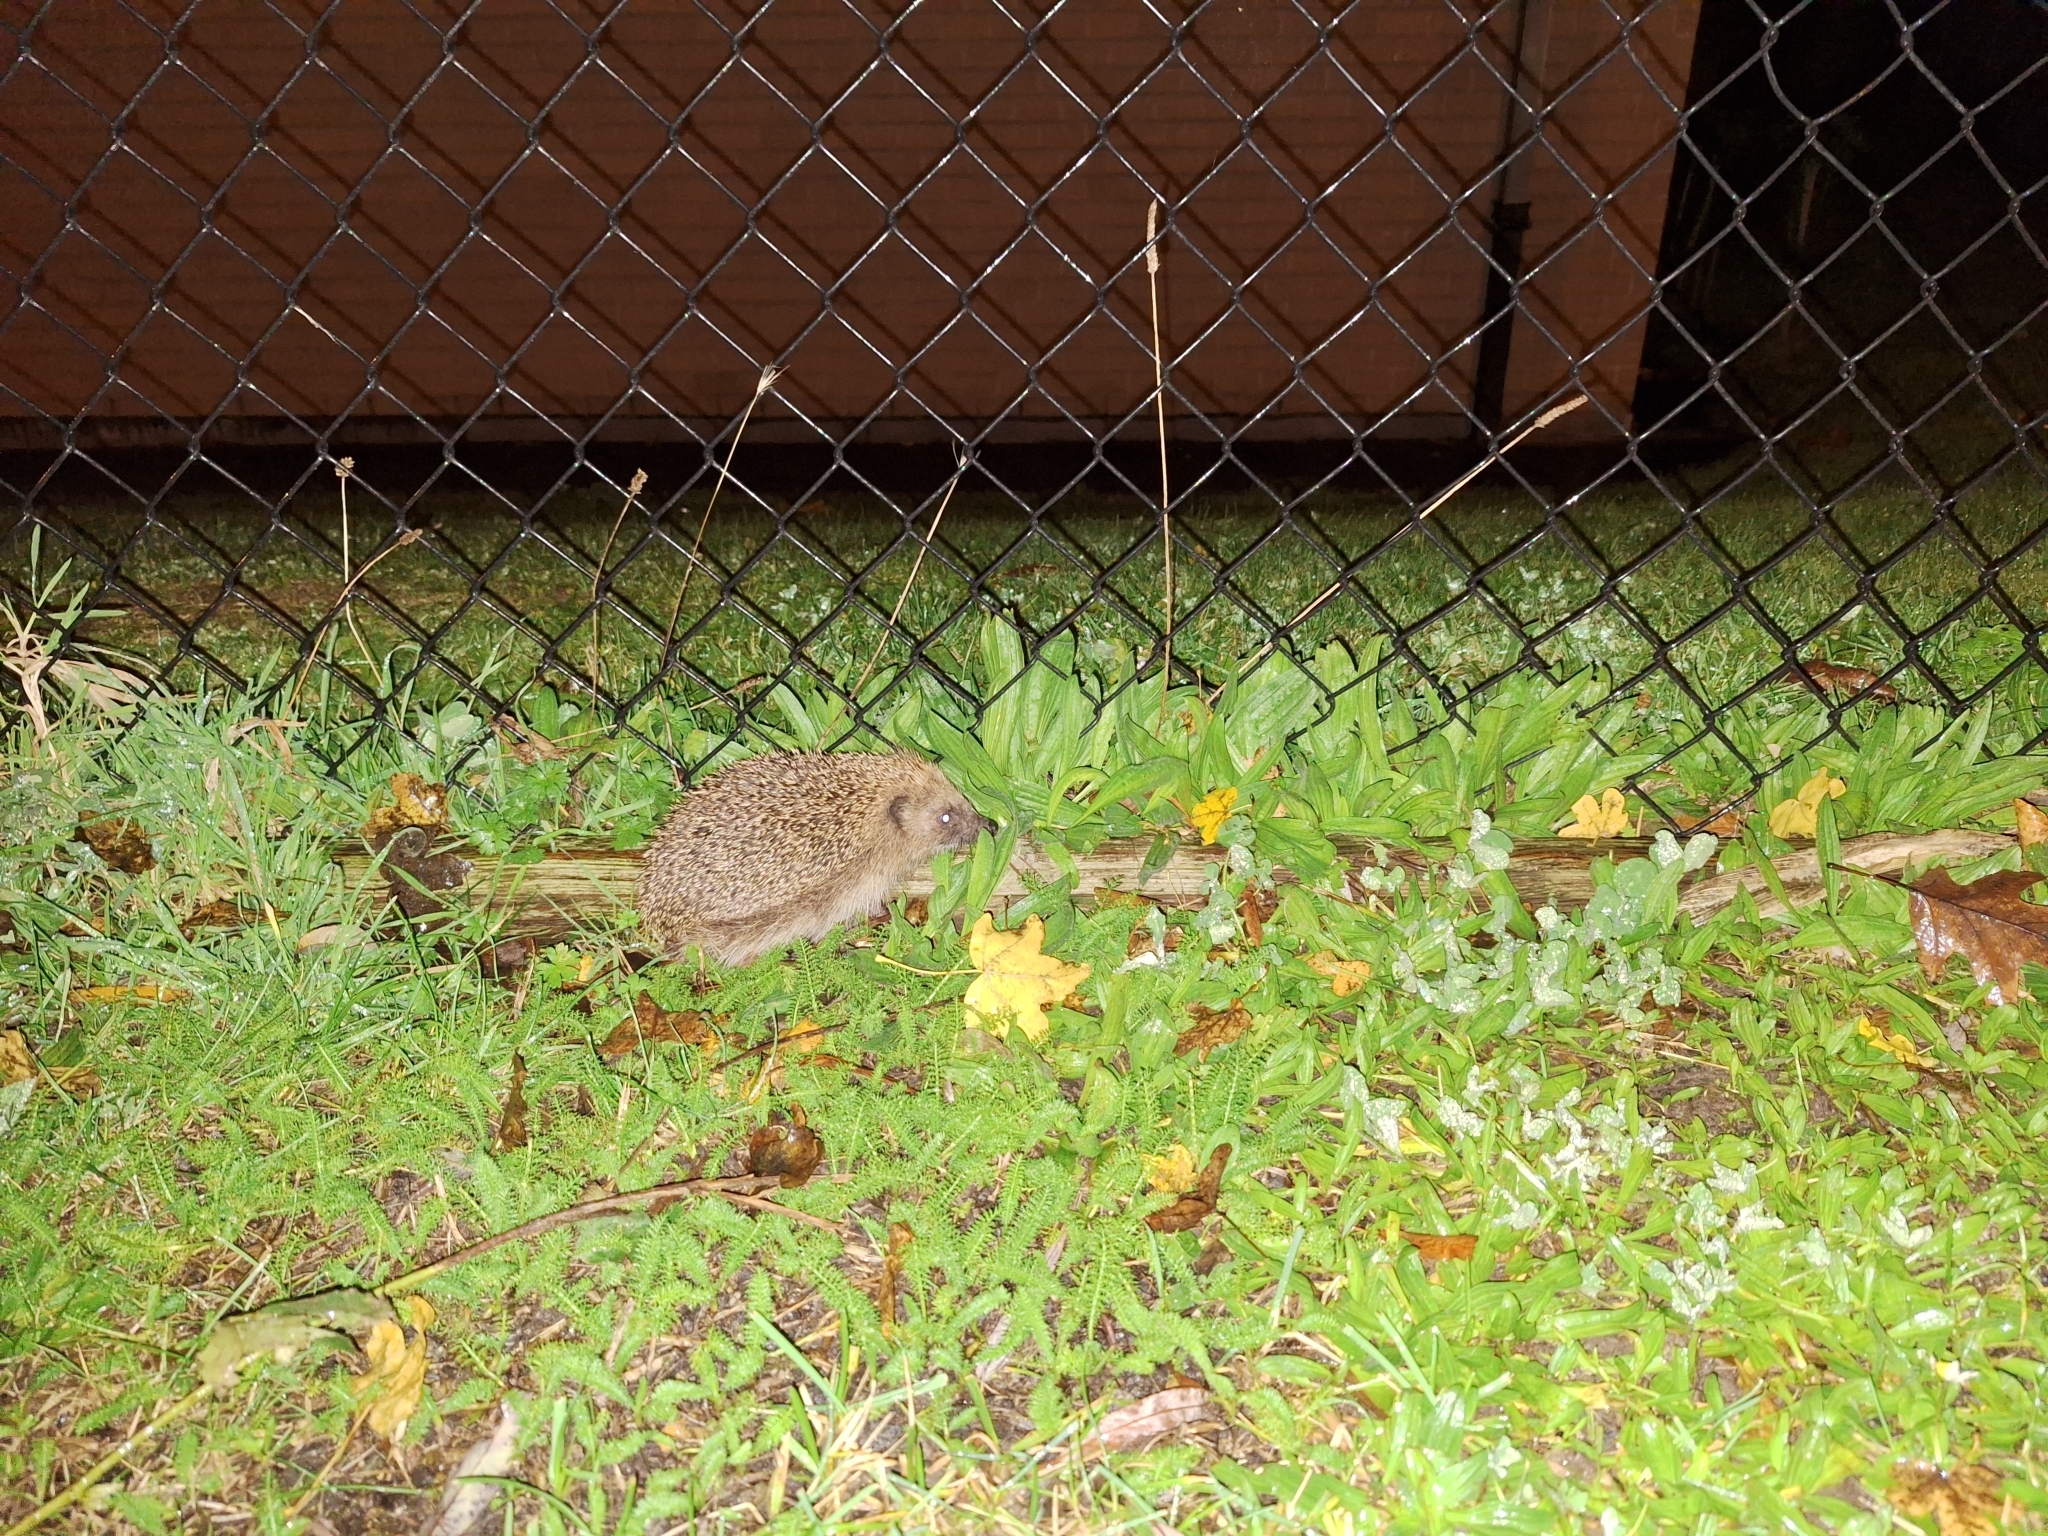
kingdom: Animalia
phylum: Chordata
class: Mammalia
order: Erinaceomorpha
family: Erinaceidae
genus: Erinaceus
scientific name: Erinaceus europaeus
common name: West european hedgehog
